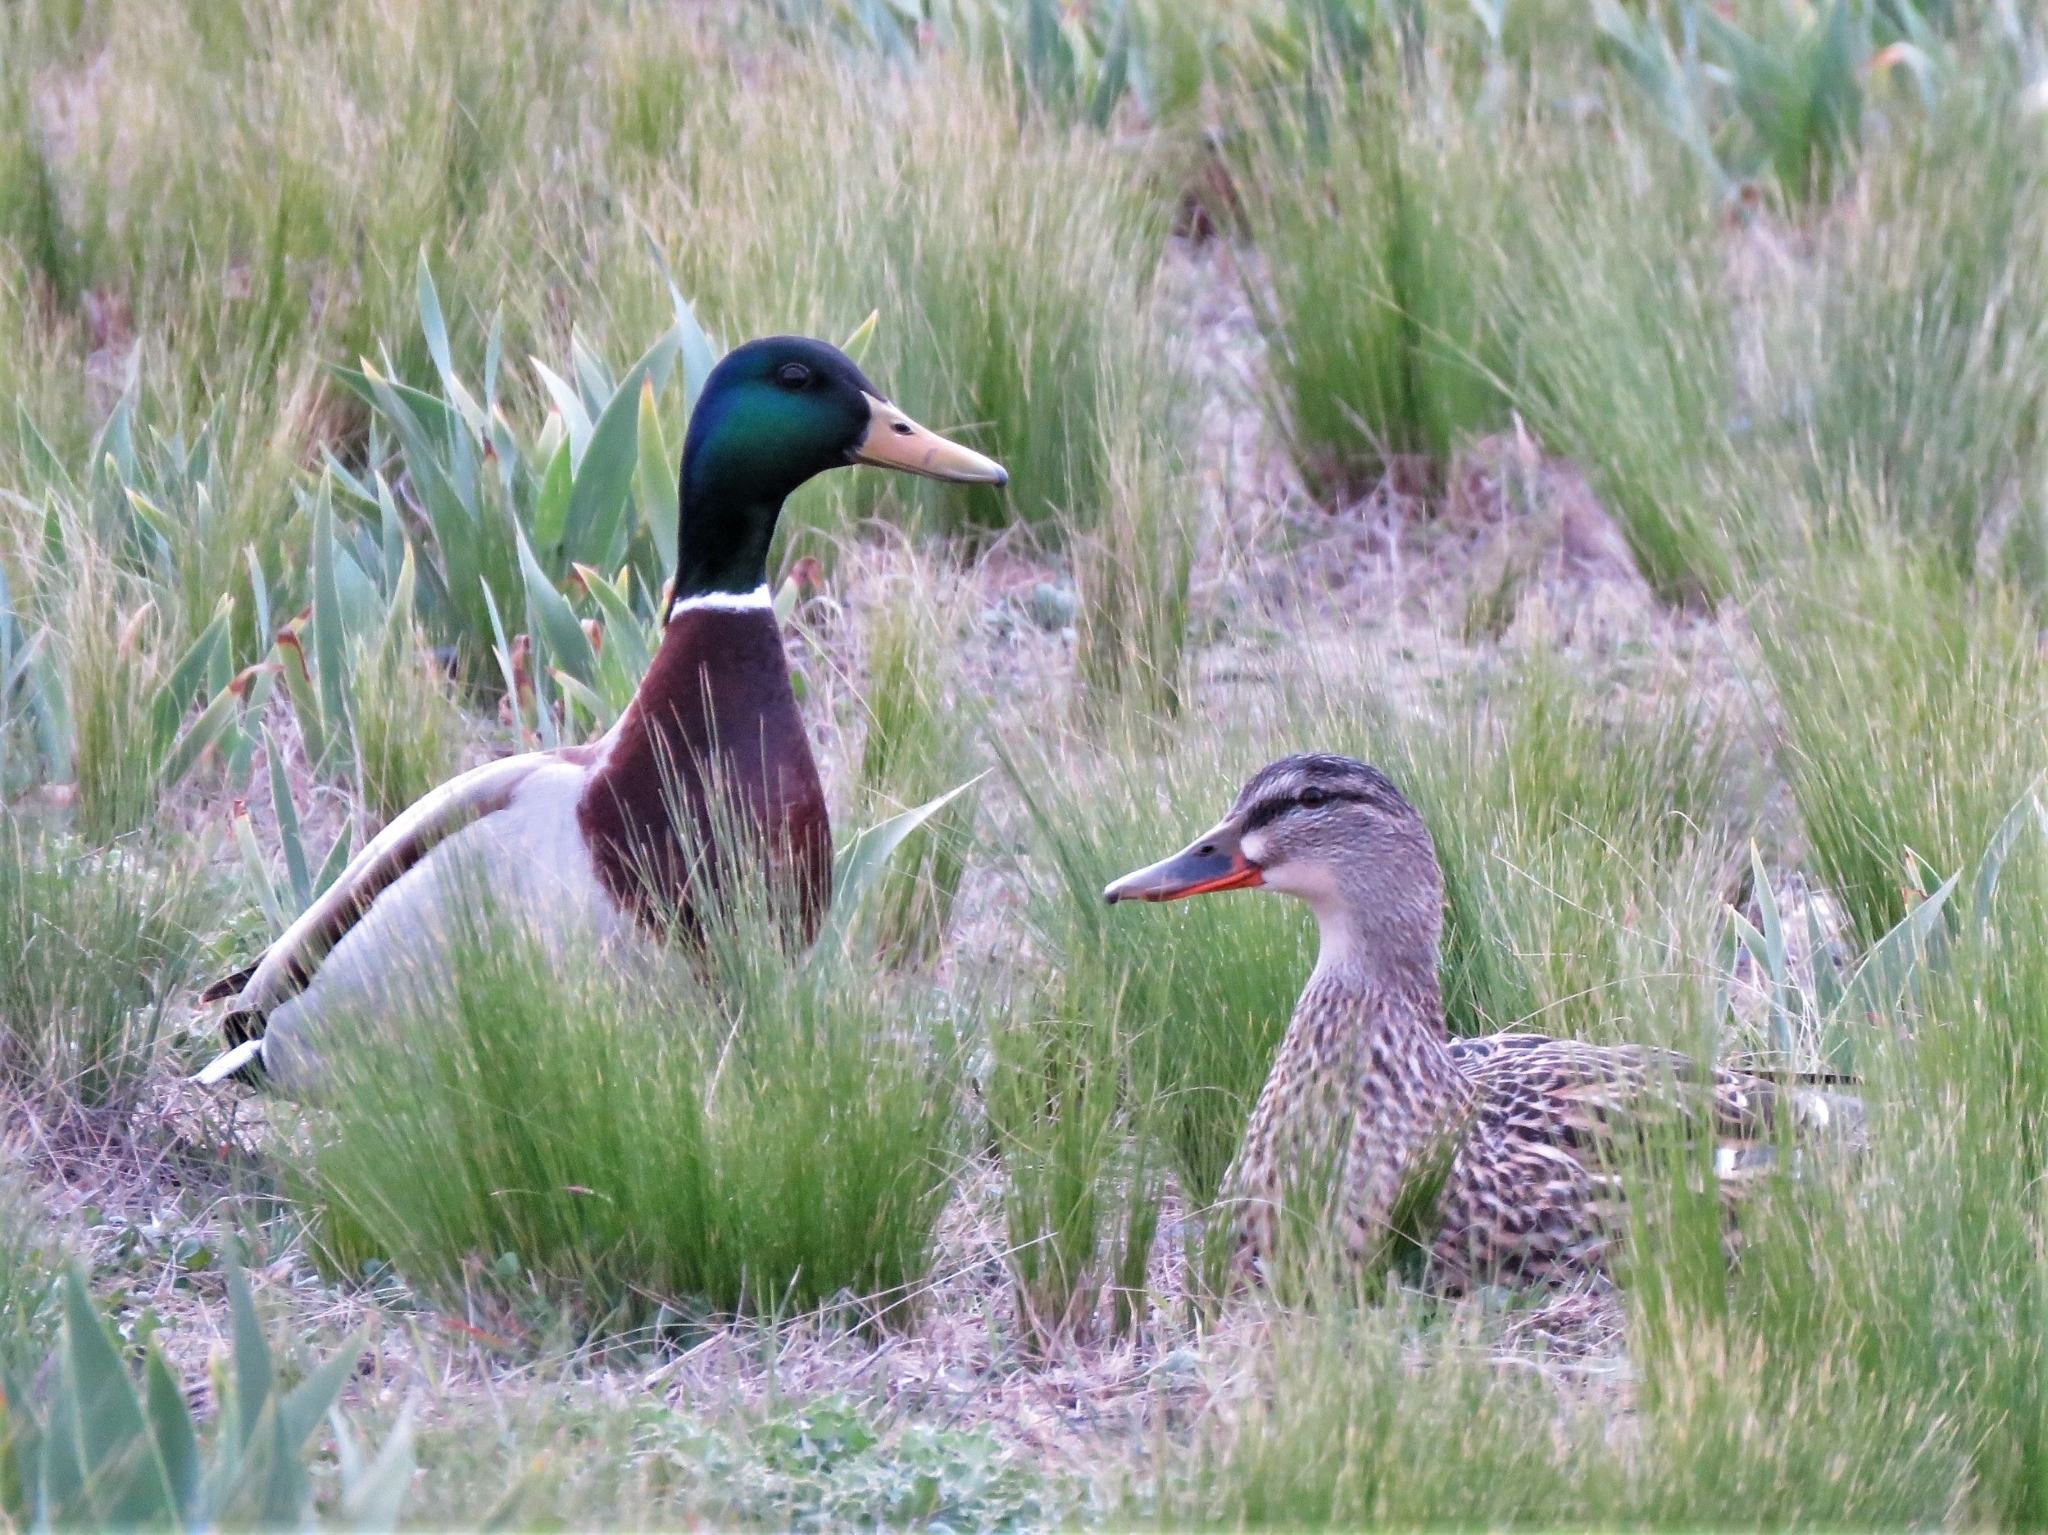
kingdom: Animalia
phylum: Chordata
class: Aves
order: Anseriformes
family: Anatidae
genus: Anas
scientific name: Anas platyrhynchos
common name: Mallard
